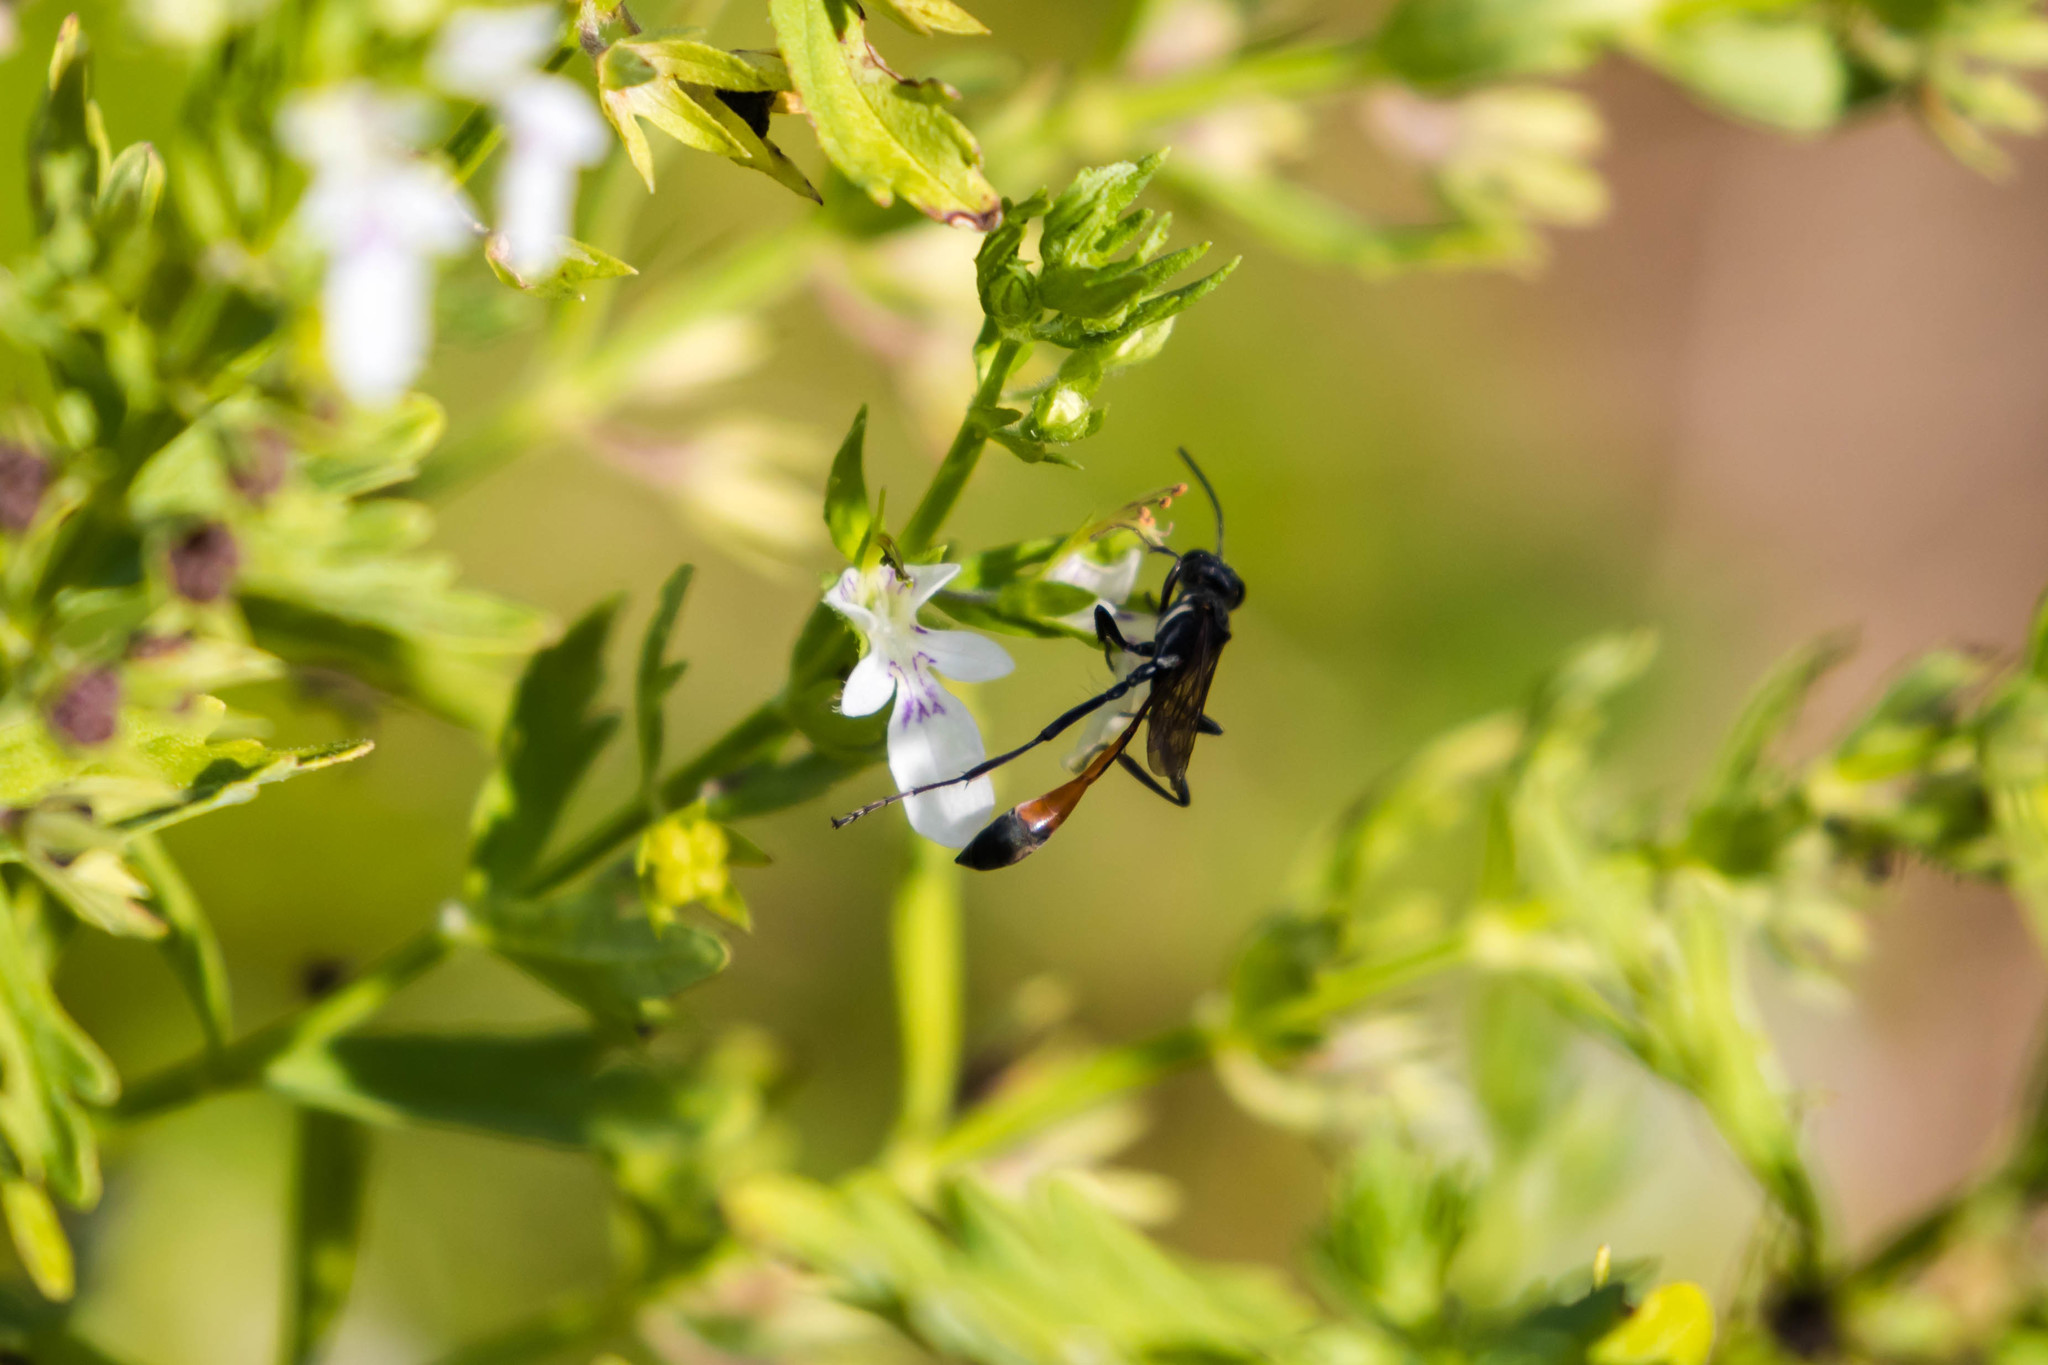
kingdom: Animalia
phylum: Arthropoda
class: Insecta
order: Hymenoptera
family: Sphecidae
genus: Ammophila
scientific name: Ammophila procera
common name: Common thread-waisted wasp
